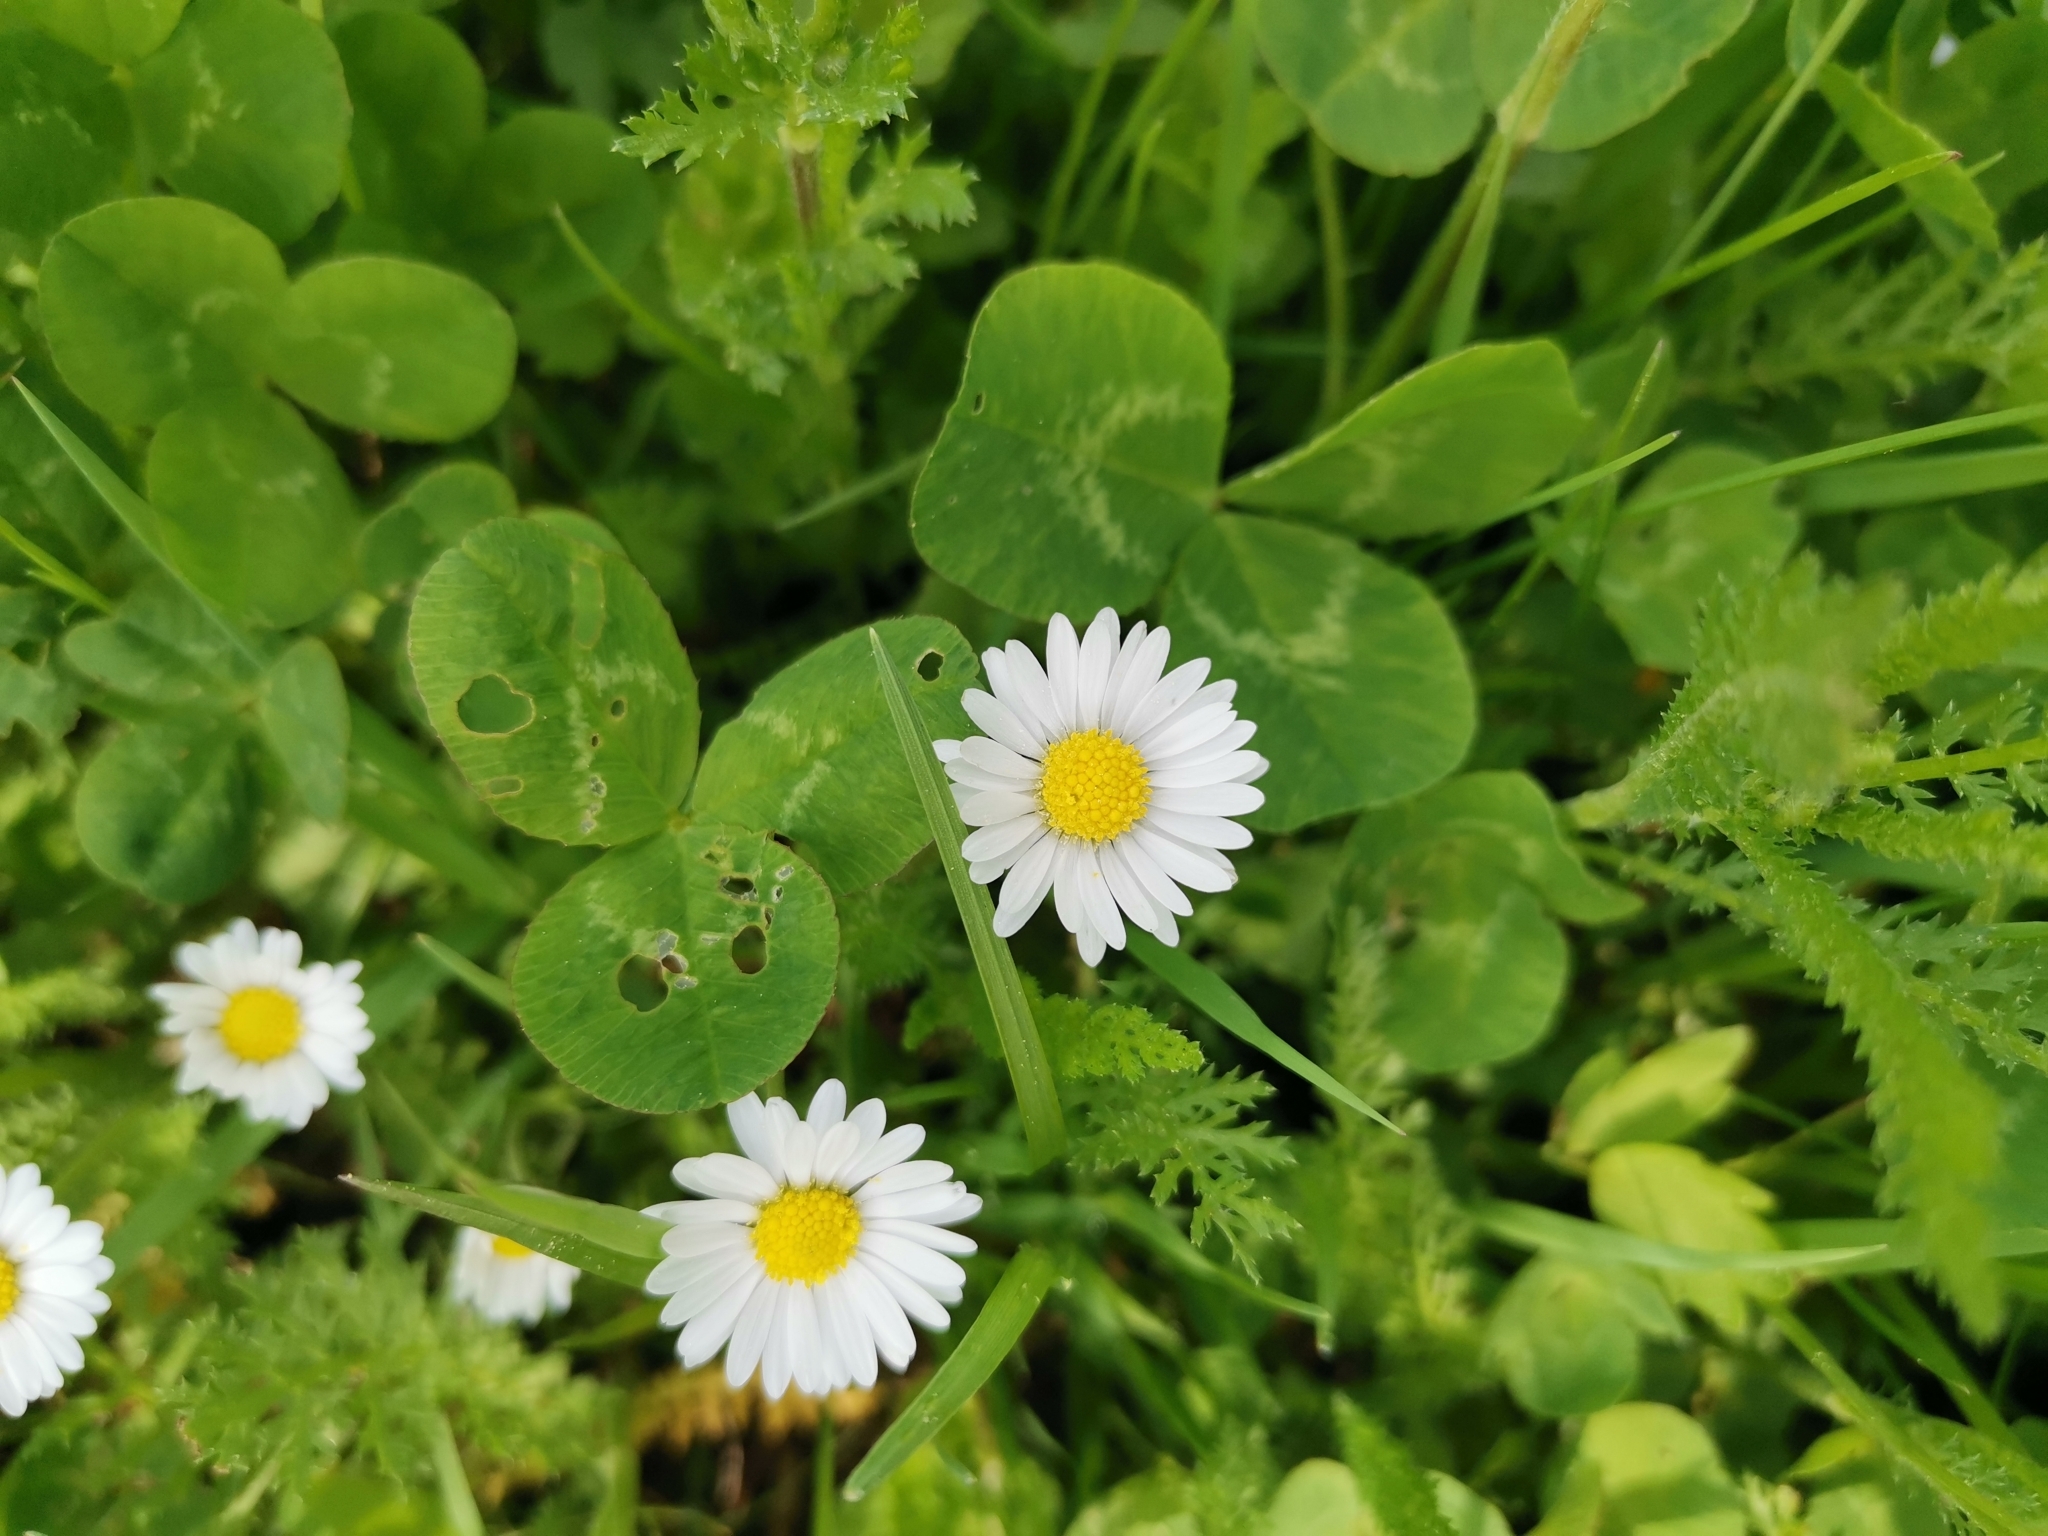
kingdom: Plantae
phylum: Tracheophyta
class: Magnoliopsida
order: Asterales
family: Asteraceae
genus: Bellis
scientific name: Bellis perennis
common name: Lawndaisy
